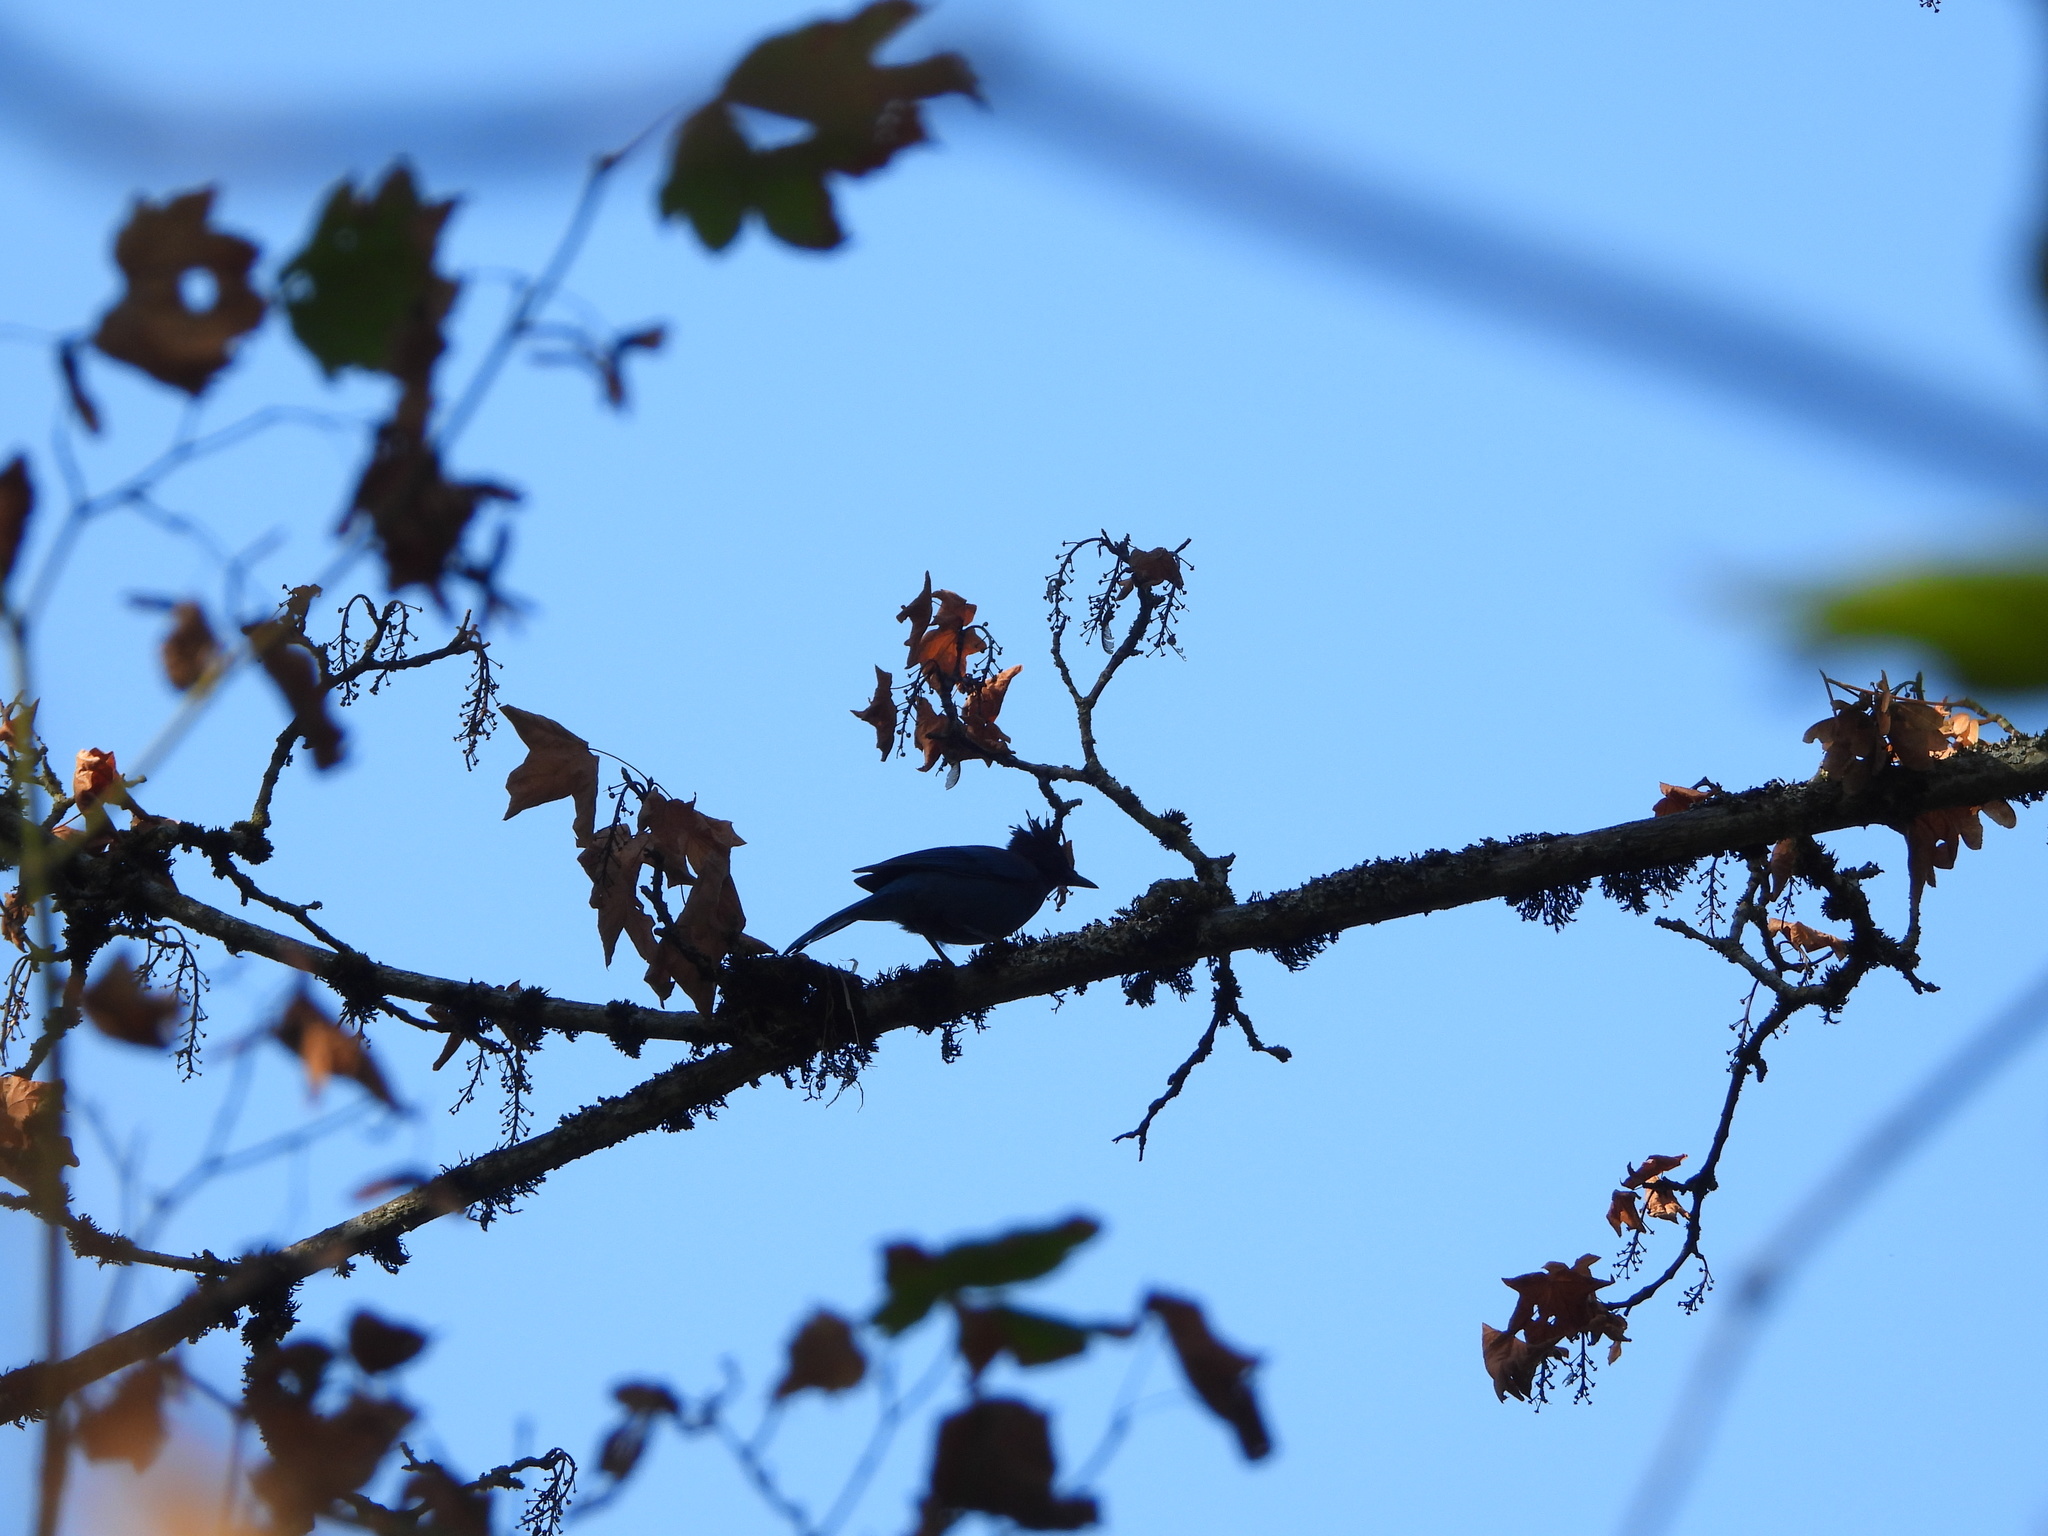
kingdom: Animalia
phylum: Chordata
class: Aves
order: Passeriformes
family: Corvidae
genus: Cyanocitta
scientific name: Cyanocitta stelleri
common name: Steller's jay
